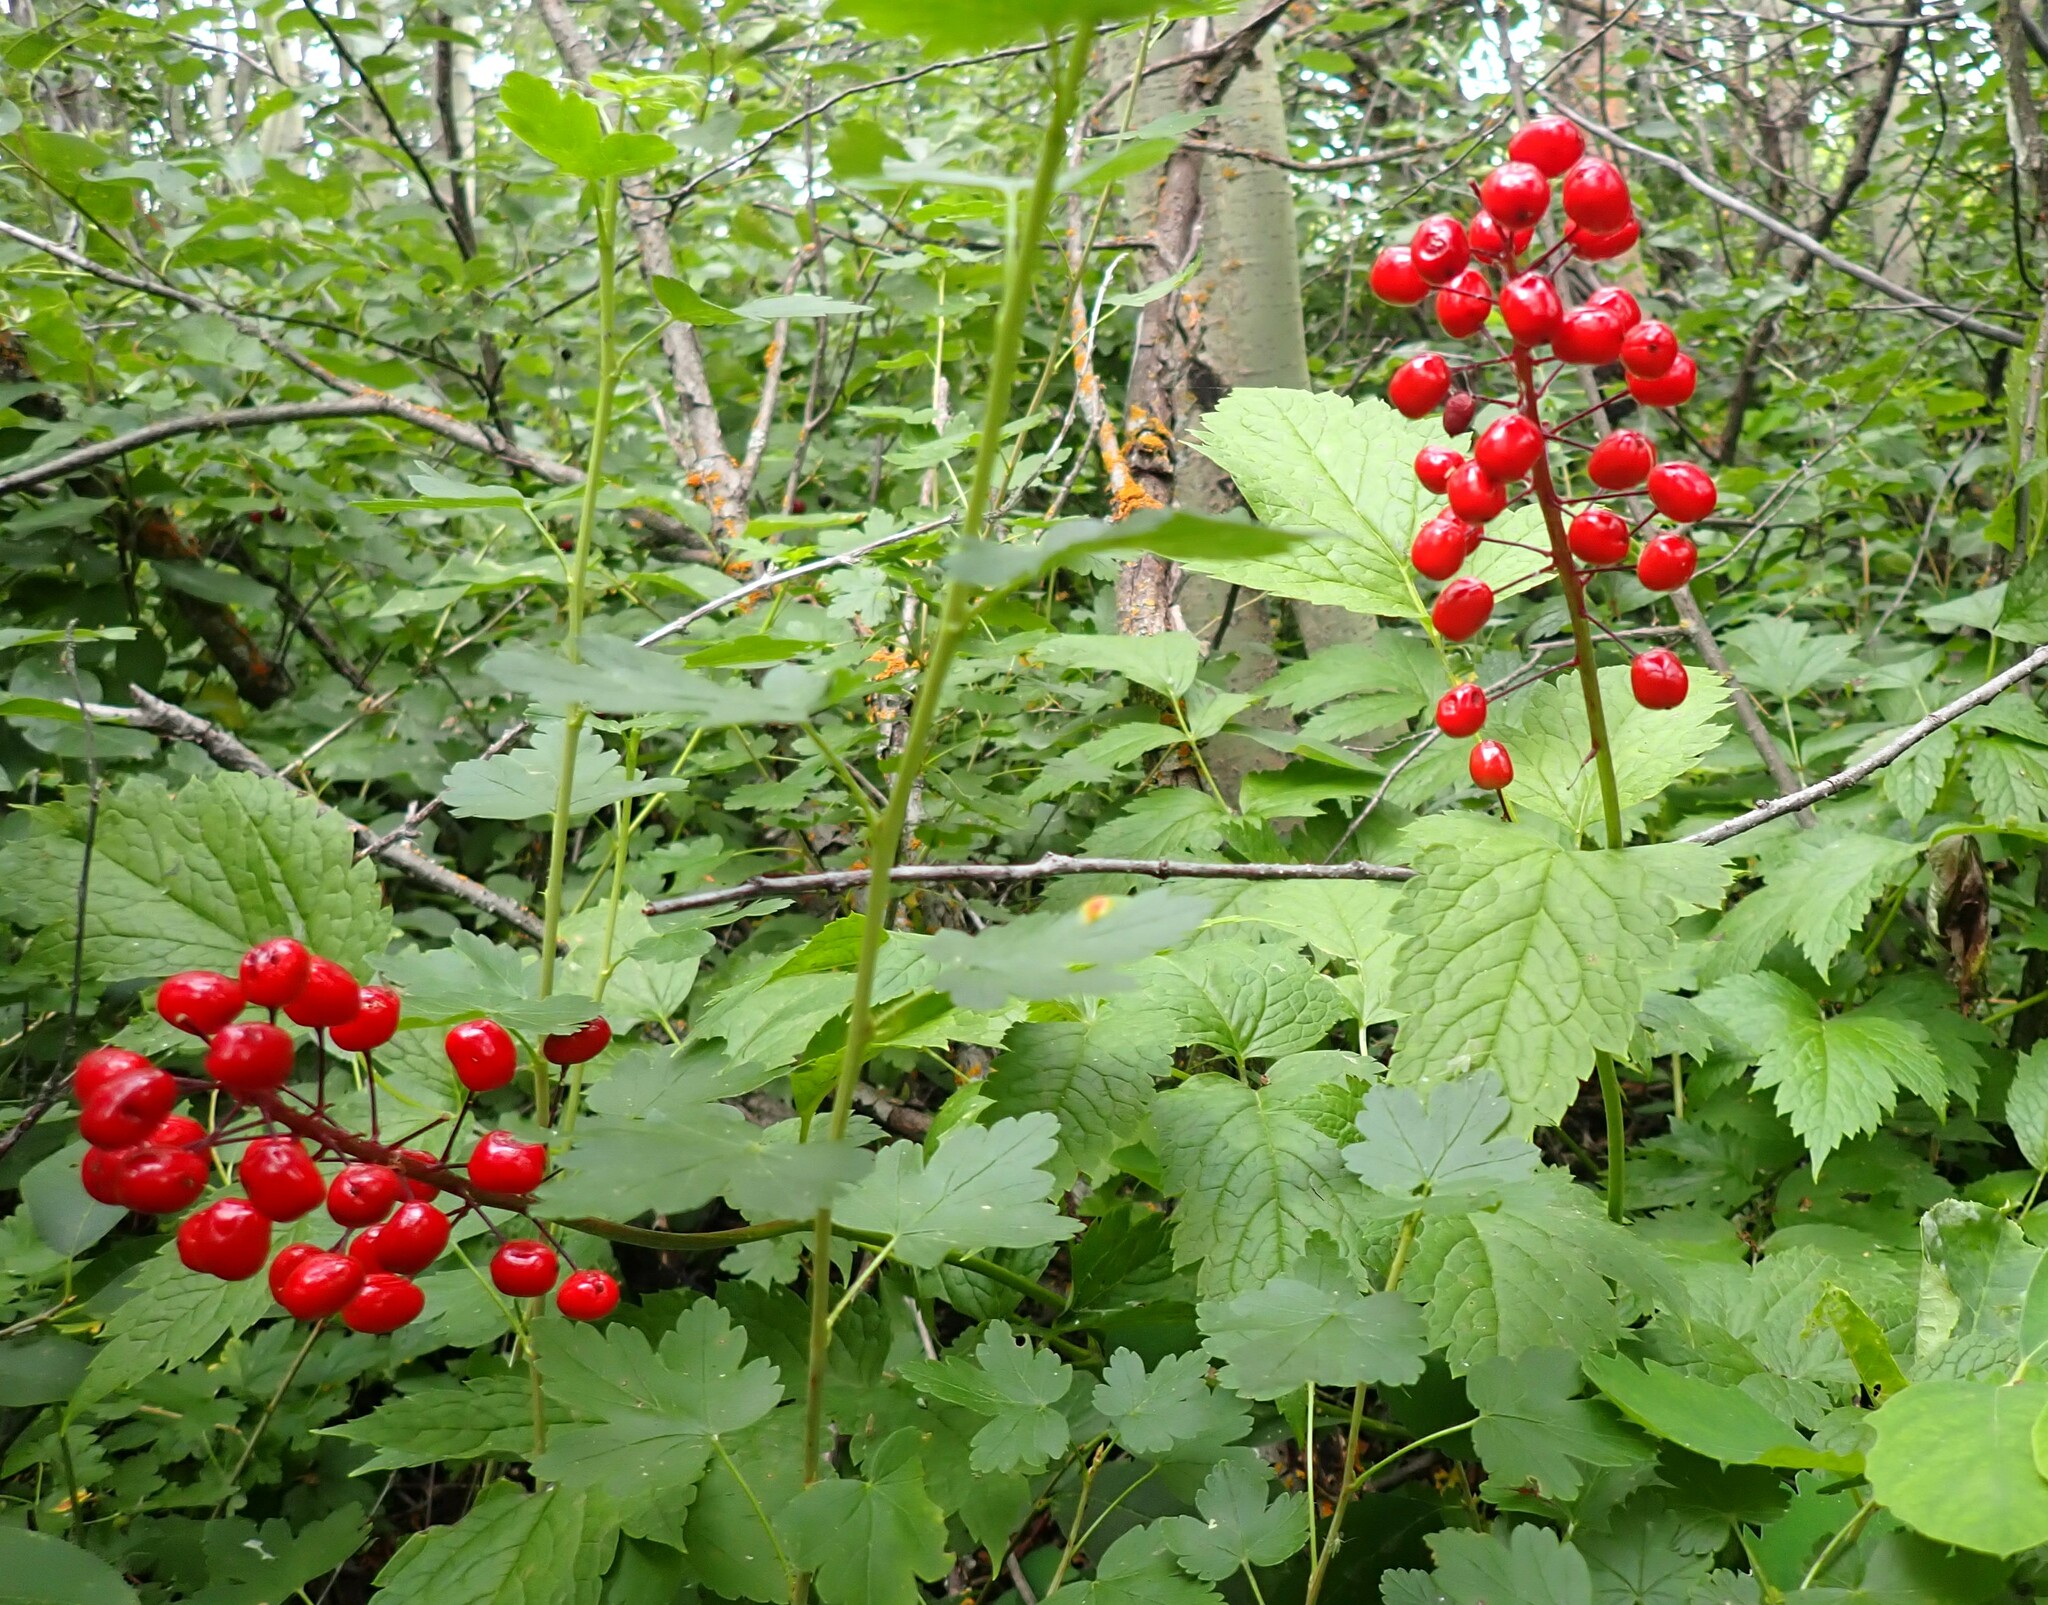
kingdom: Plantae
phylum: Tracheophyta
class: Magnoliopsida
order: Ranunculales
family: Ranunculaceae
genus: Actaea
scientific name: Actaea rubra
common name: Red baneberry
